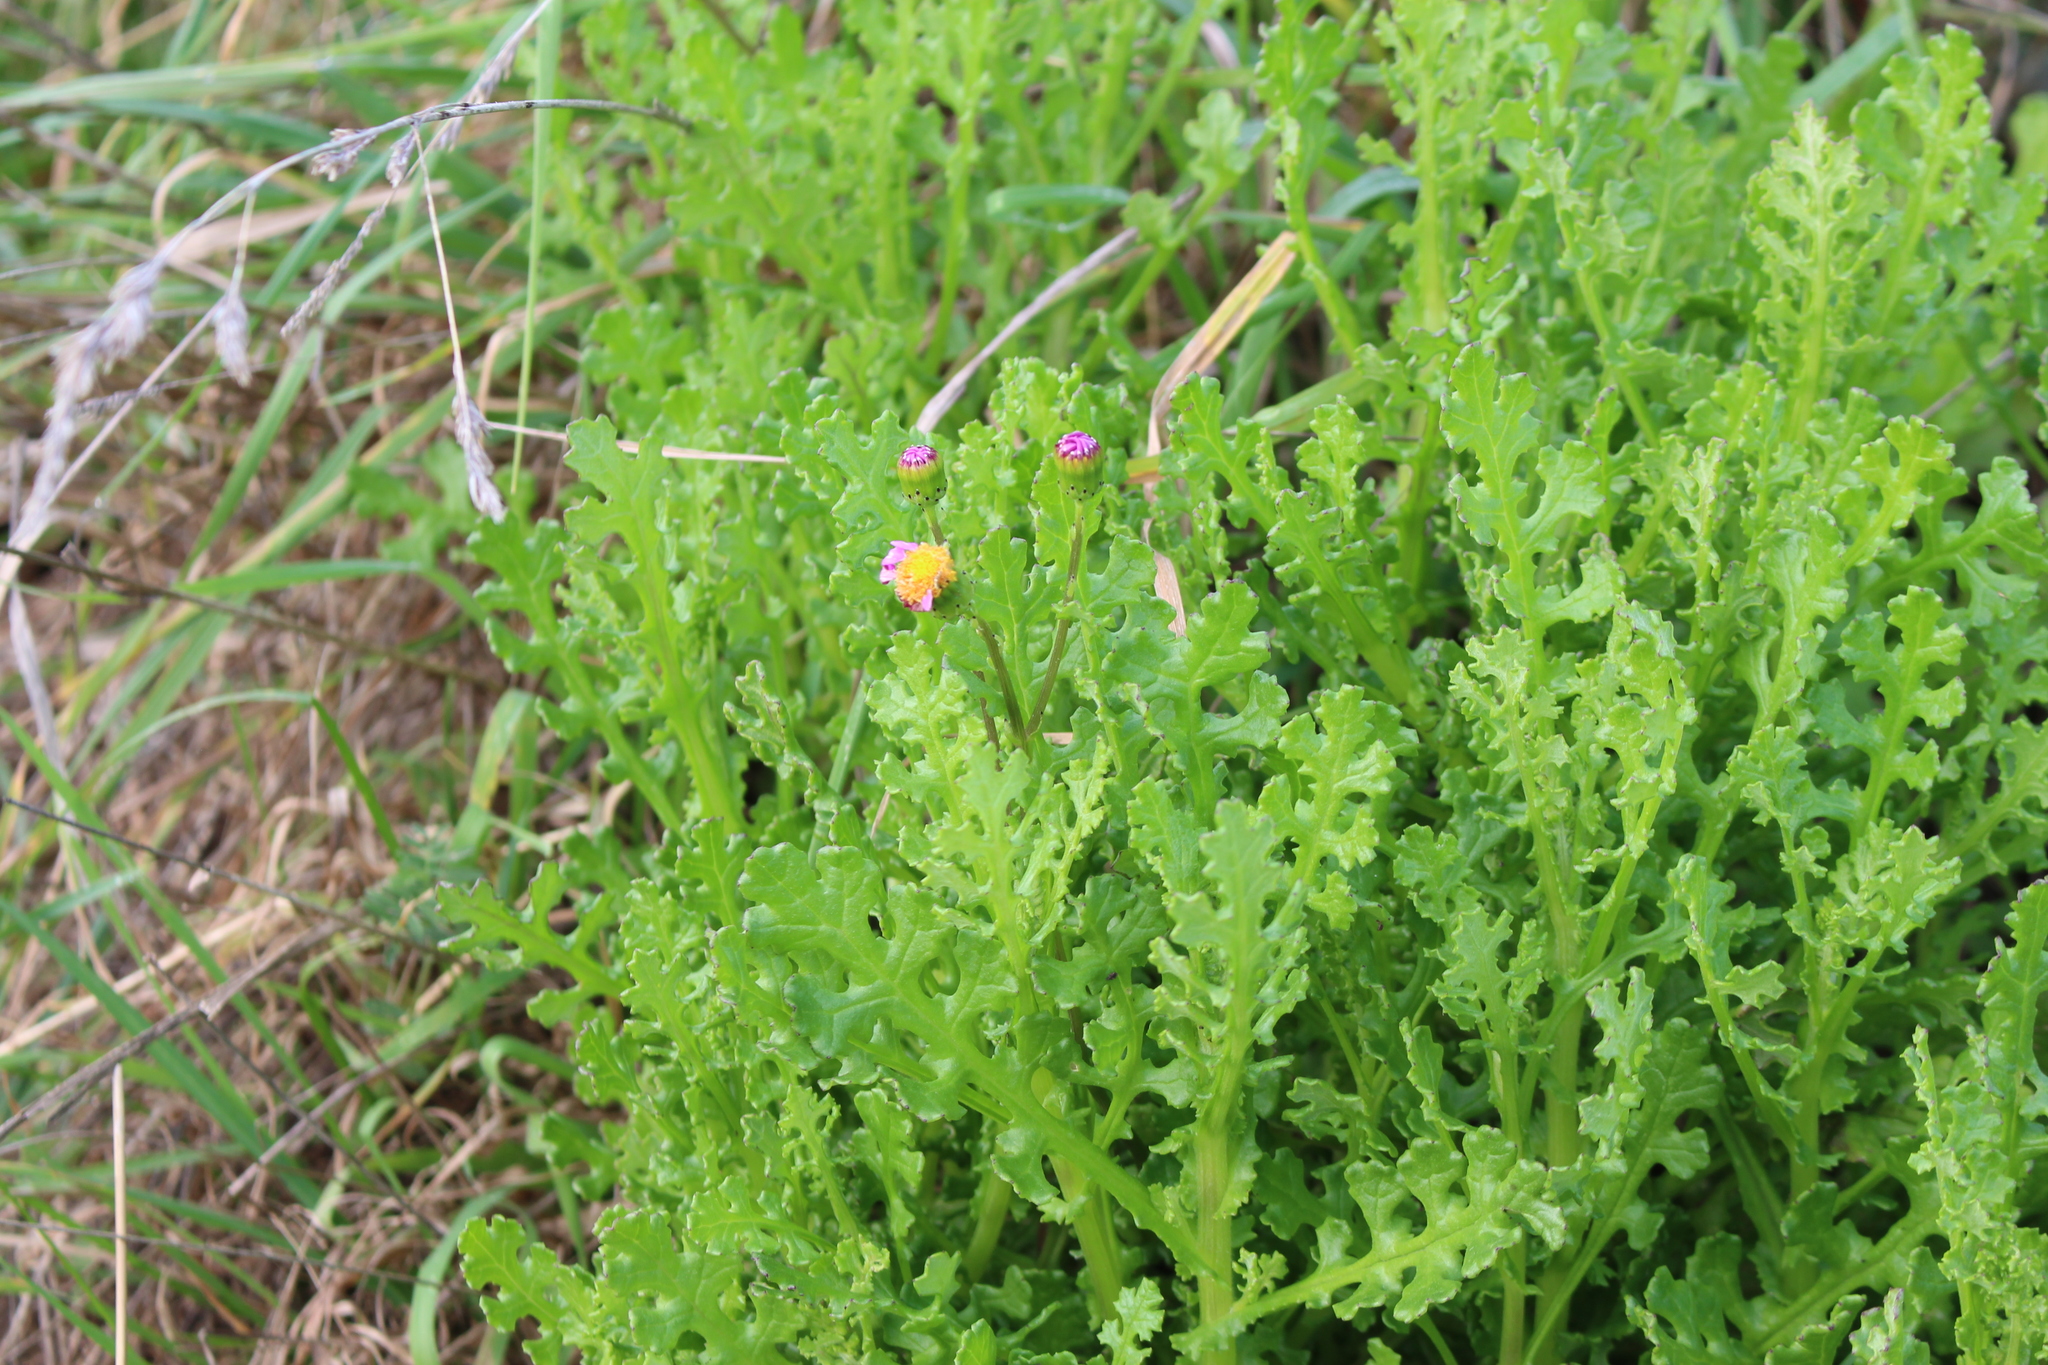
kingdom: Plantae
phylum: Tracheophyta
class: Magnoliopsida
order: Asterales
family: Asteraceae
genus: Senecio
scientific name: Senecio elegans
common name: Purple groundsel
